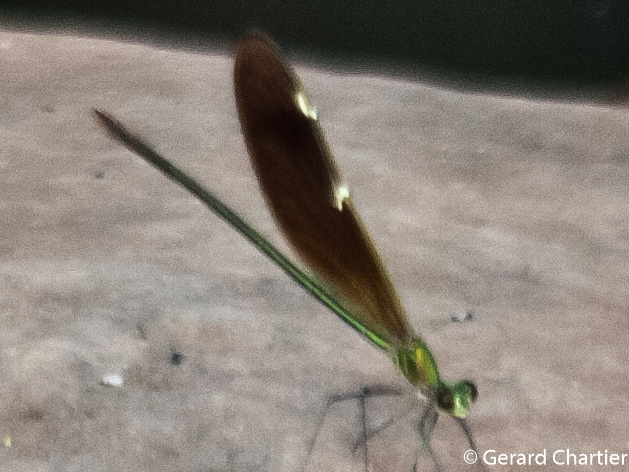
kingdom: Animalia
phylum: Arthropoda
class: Insecta
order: Odonata
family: Calopterygidae
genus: Neurobasis
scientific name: Neurobasis chinensis
